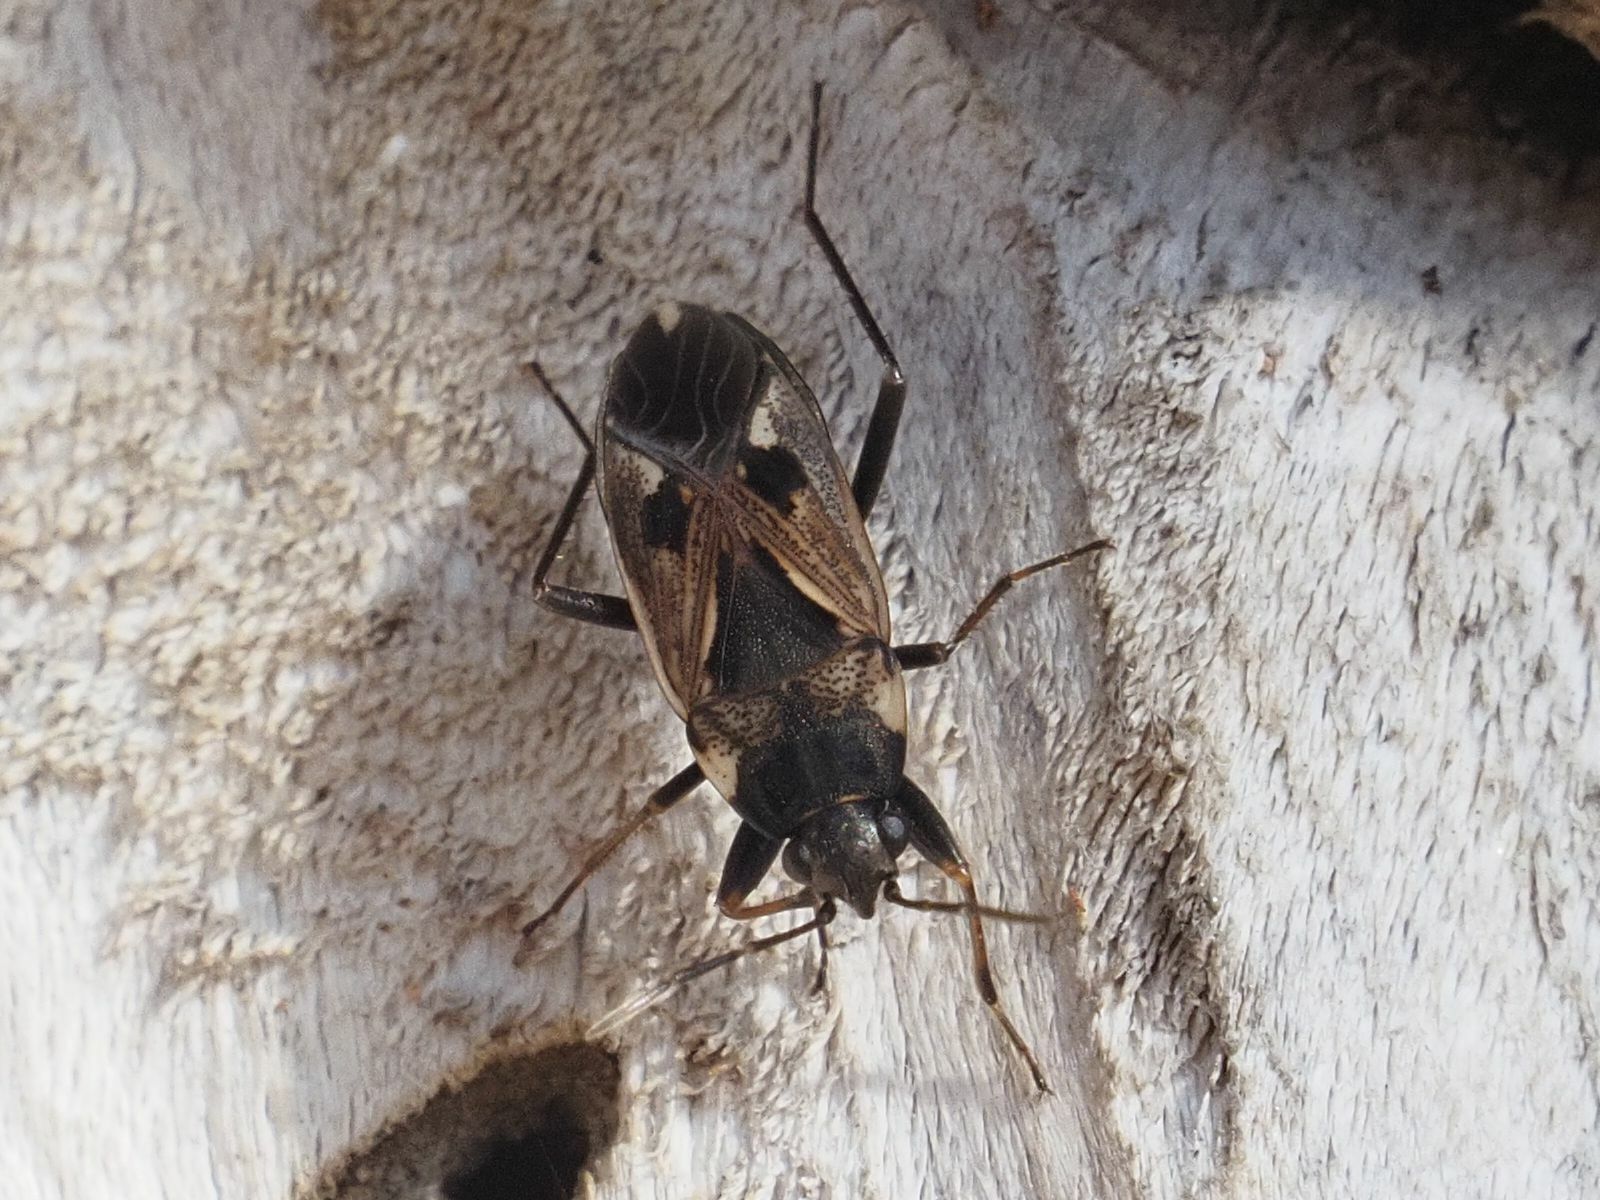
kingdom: Animalia
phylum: Arthropoda
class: Insecta
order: Hemiptera
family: Rhyparochromidae
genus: Rhyparochromus
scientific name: Rhyparochromus vulgaris
